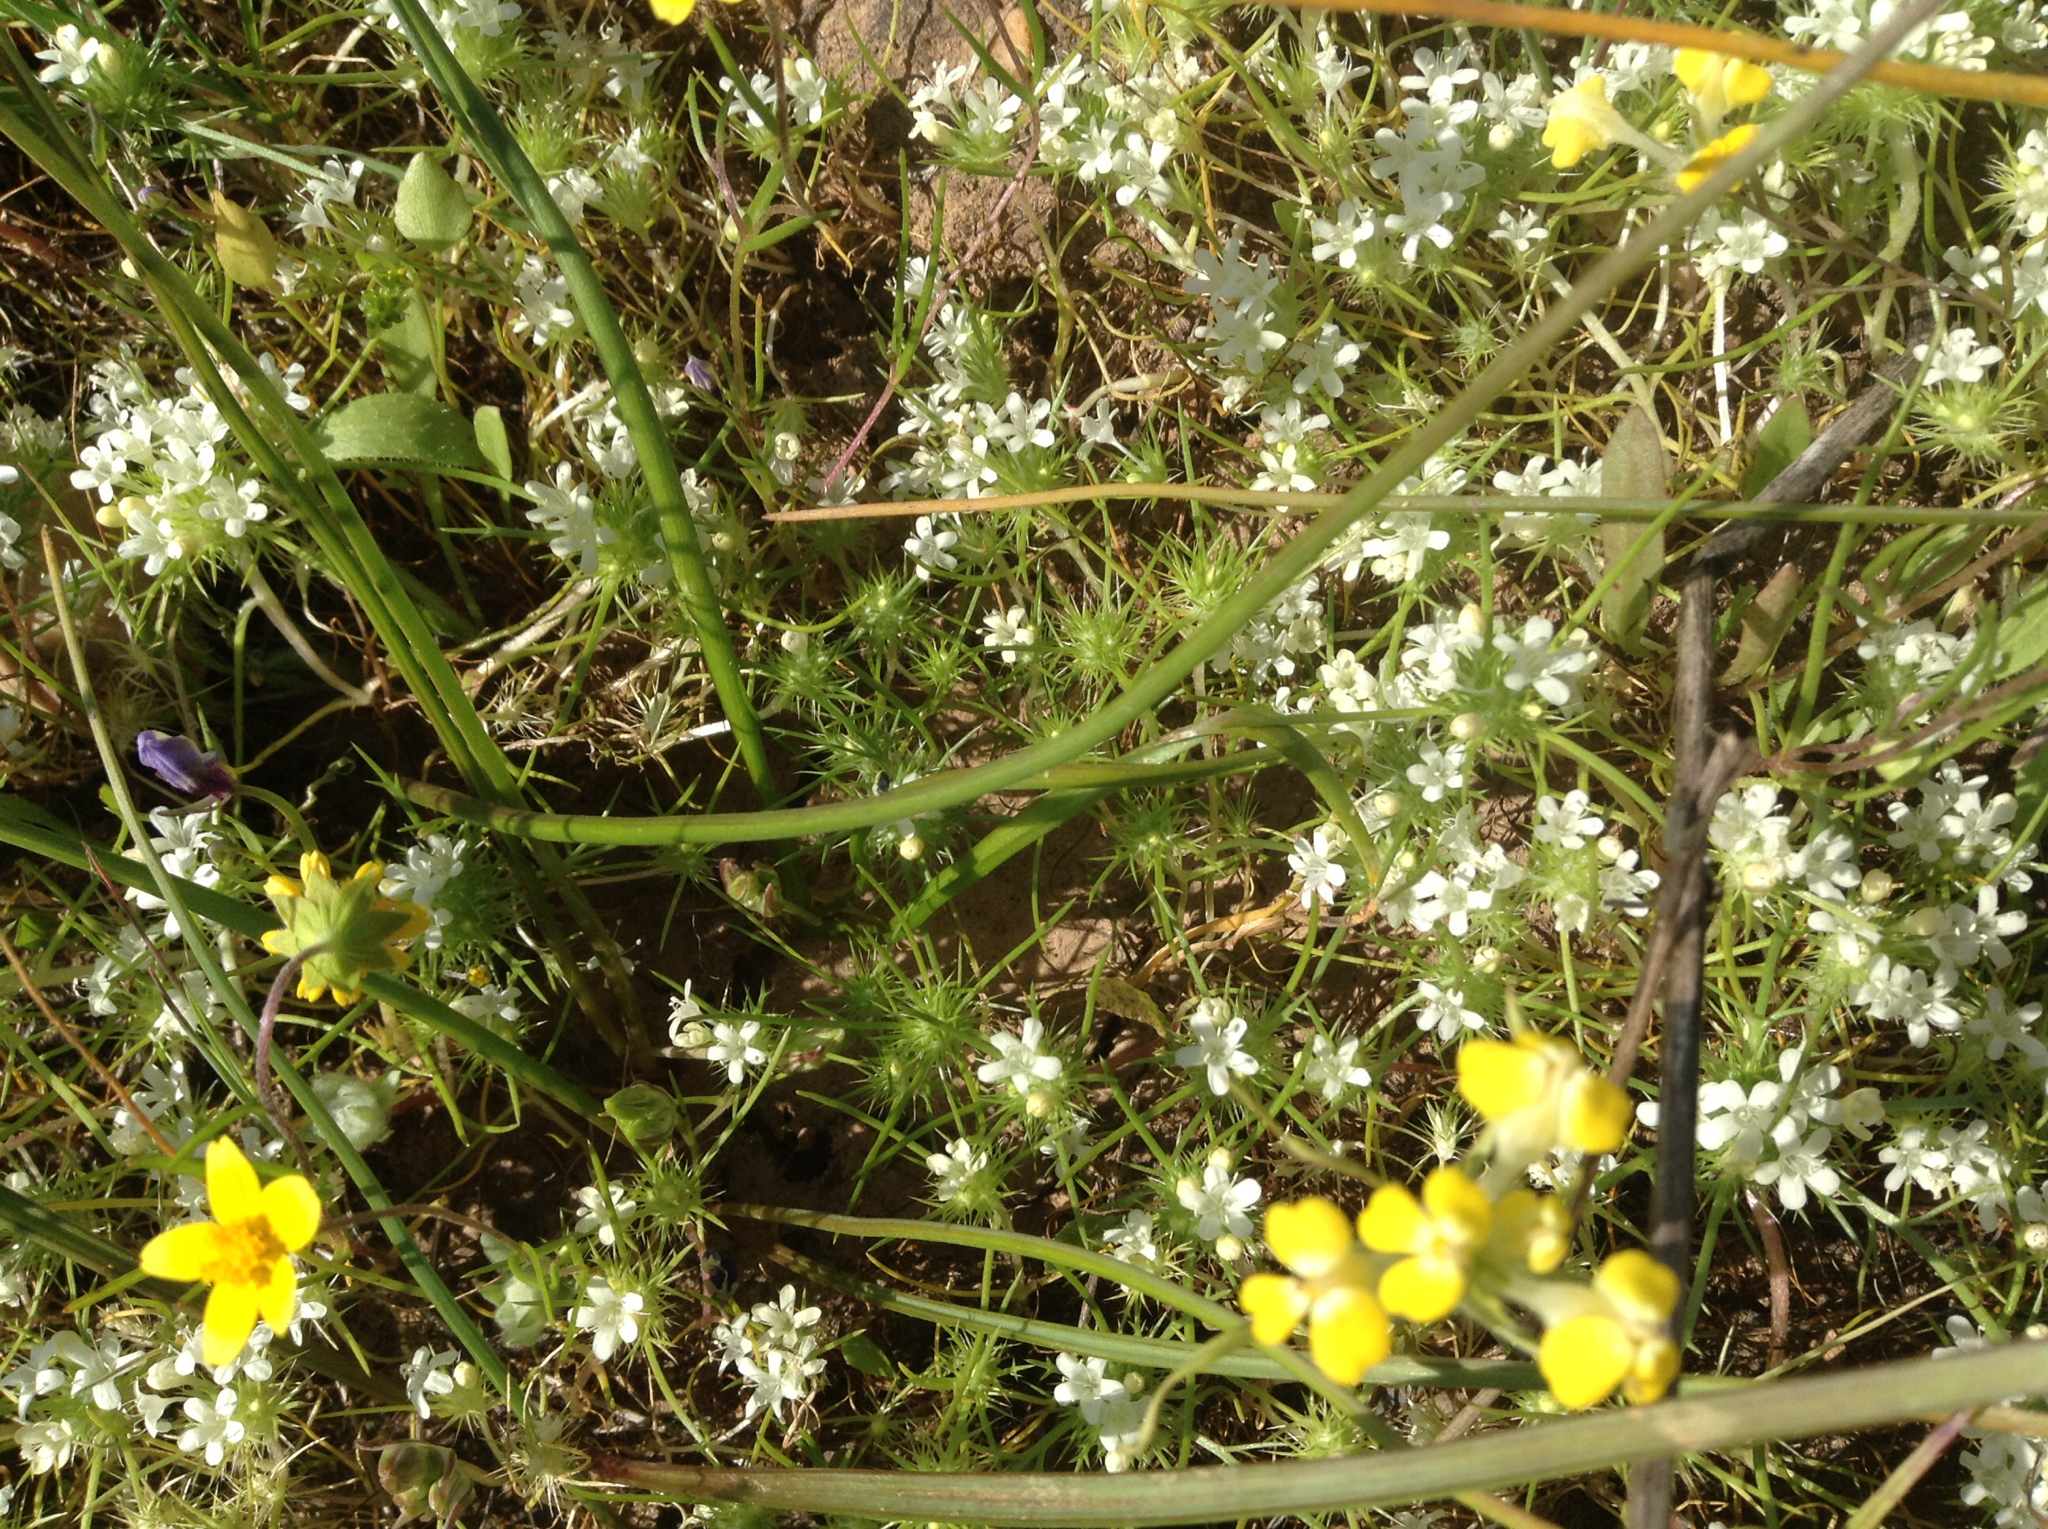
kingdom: Plantae
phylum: Tracheophyta
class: Magnoliopsida
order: Ericales
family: Polemoniaceae
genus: Navarretia
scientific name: Navarretia leucocephala
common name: White-flowered navarretia
